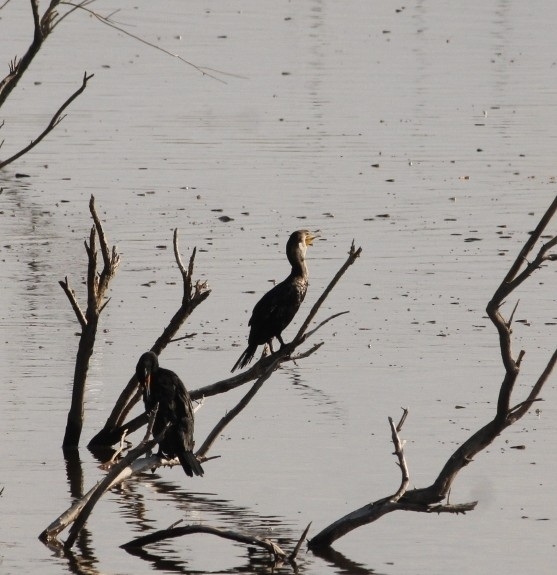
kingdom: Animalia
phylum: Chordata
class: Aves
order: Suliformes
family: Phalacrocoracidae
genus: Phalacrocorax
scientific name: Phalacrocorax auritus
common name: Double-crested cormorant
